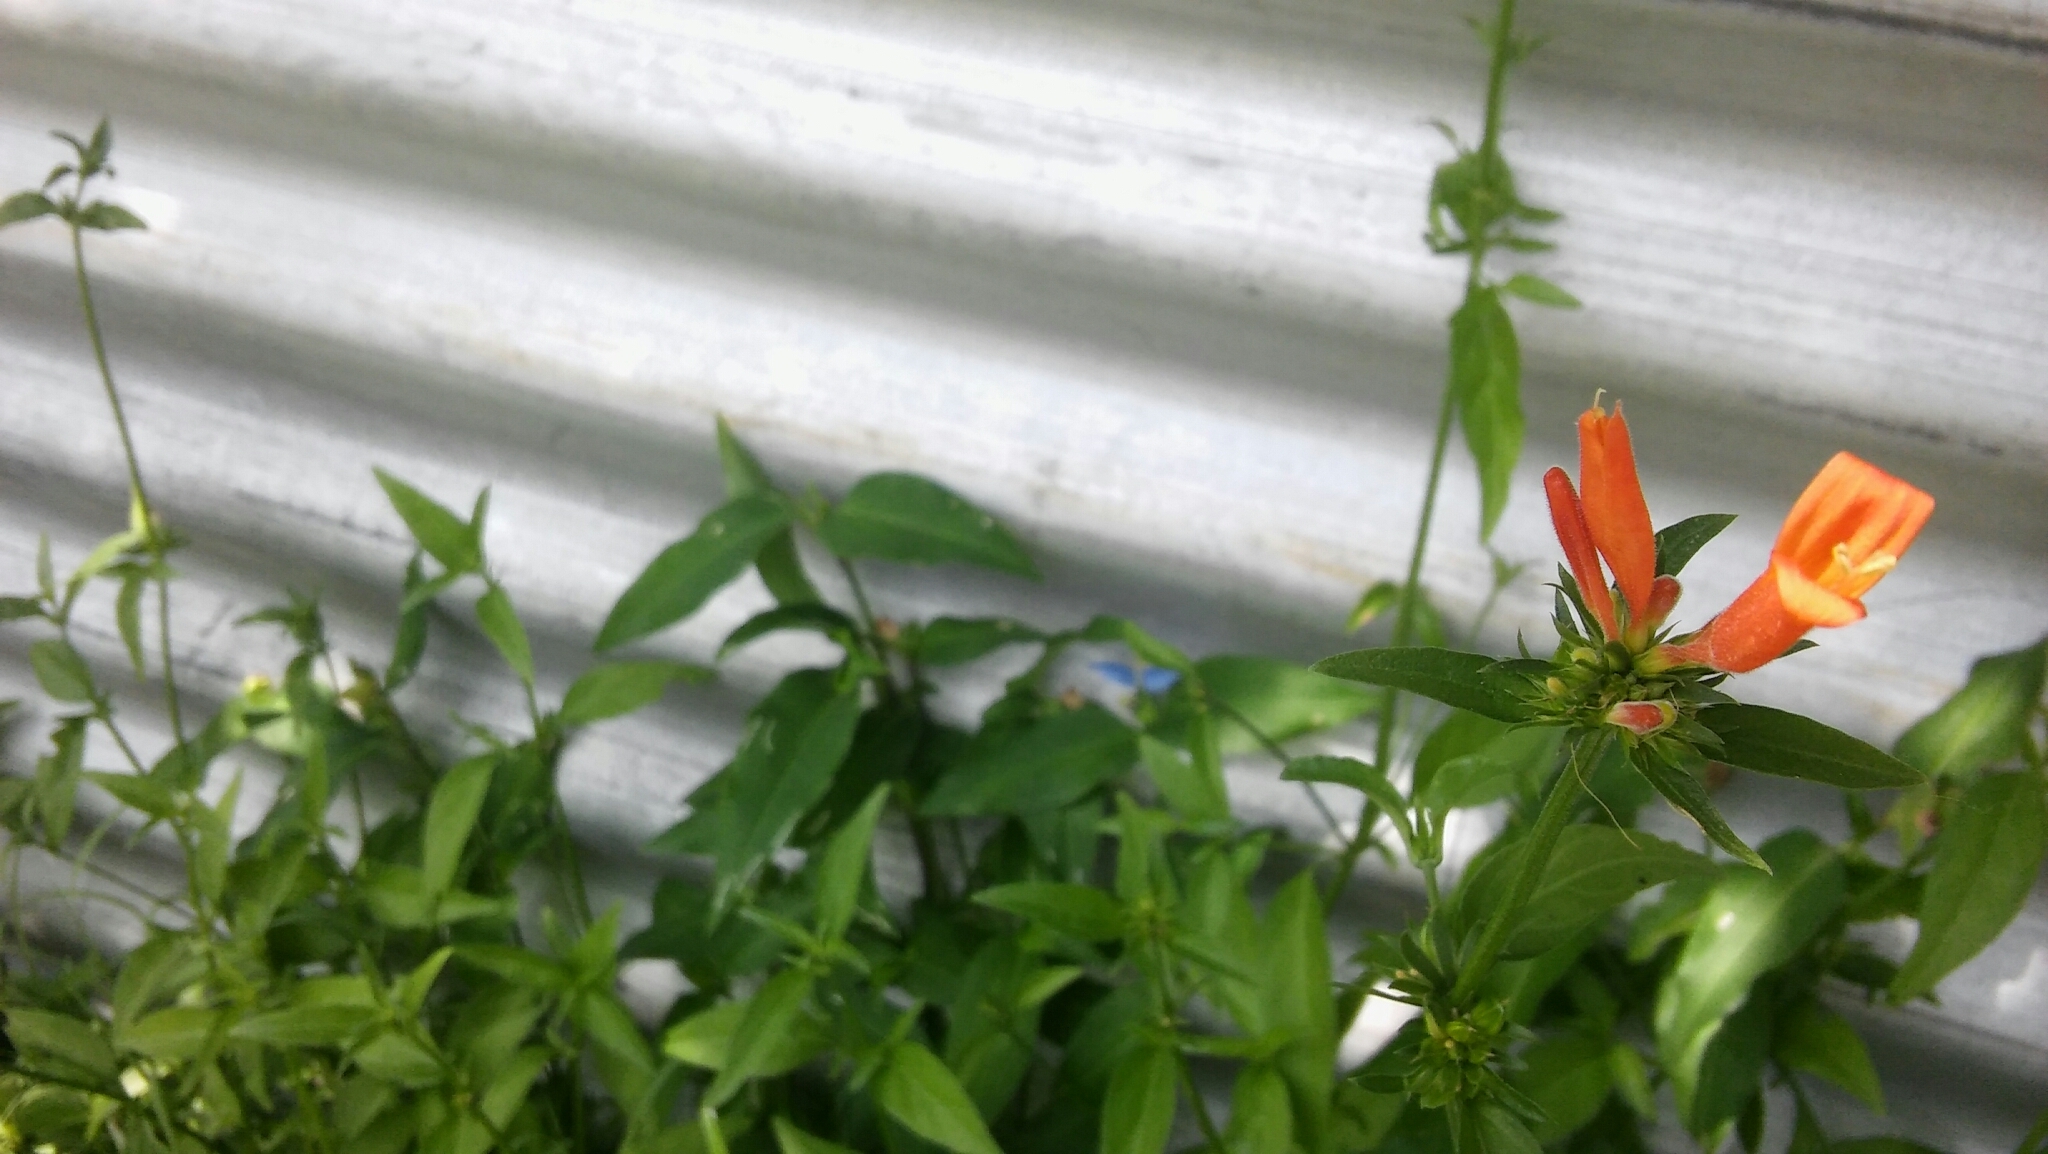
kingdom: Plantae
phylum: Tracheophyta
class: Magnoliopsida
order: Lamiales
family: Acanthaceae
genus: Dicliptera
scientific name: Dicliptera squarrosa
